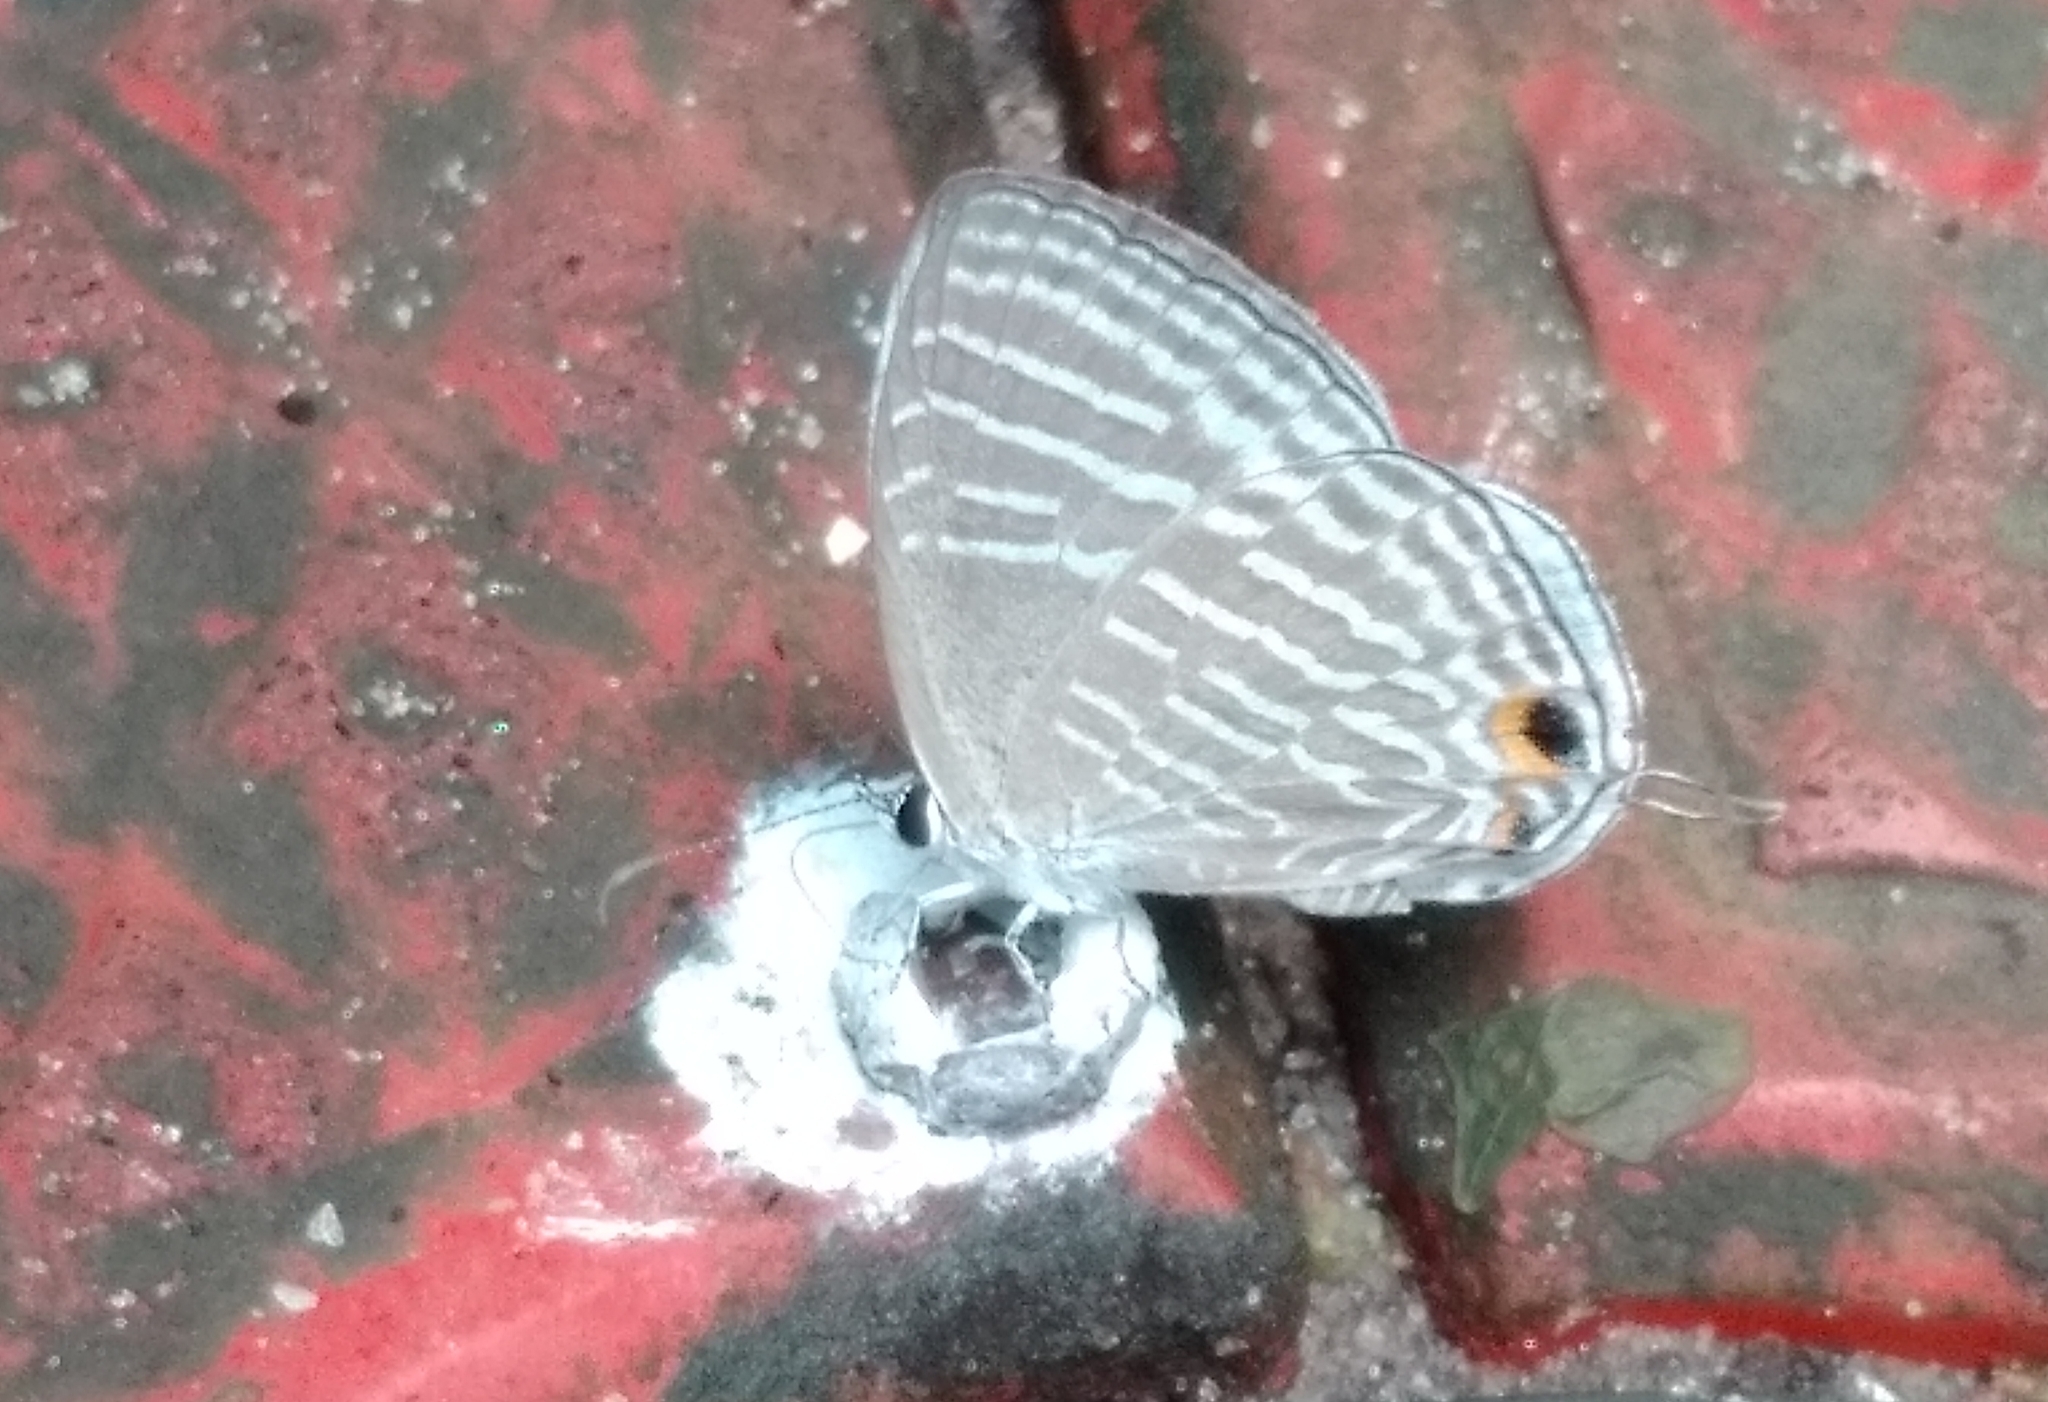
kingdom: Animalia
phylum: Arthropoda
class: Insecta
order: Lepidoptera
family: Lycaenidae
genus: Jamides
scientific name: Jamides celeno
